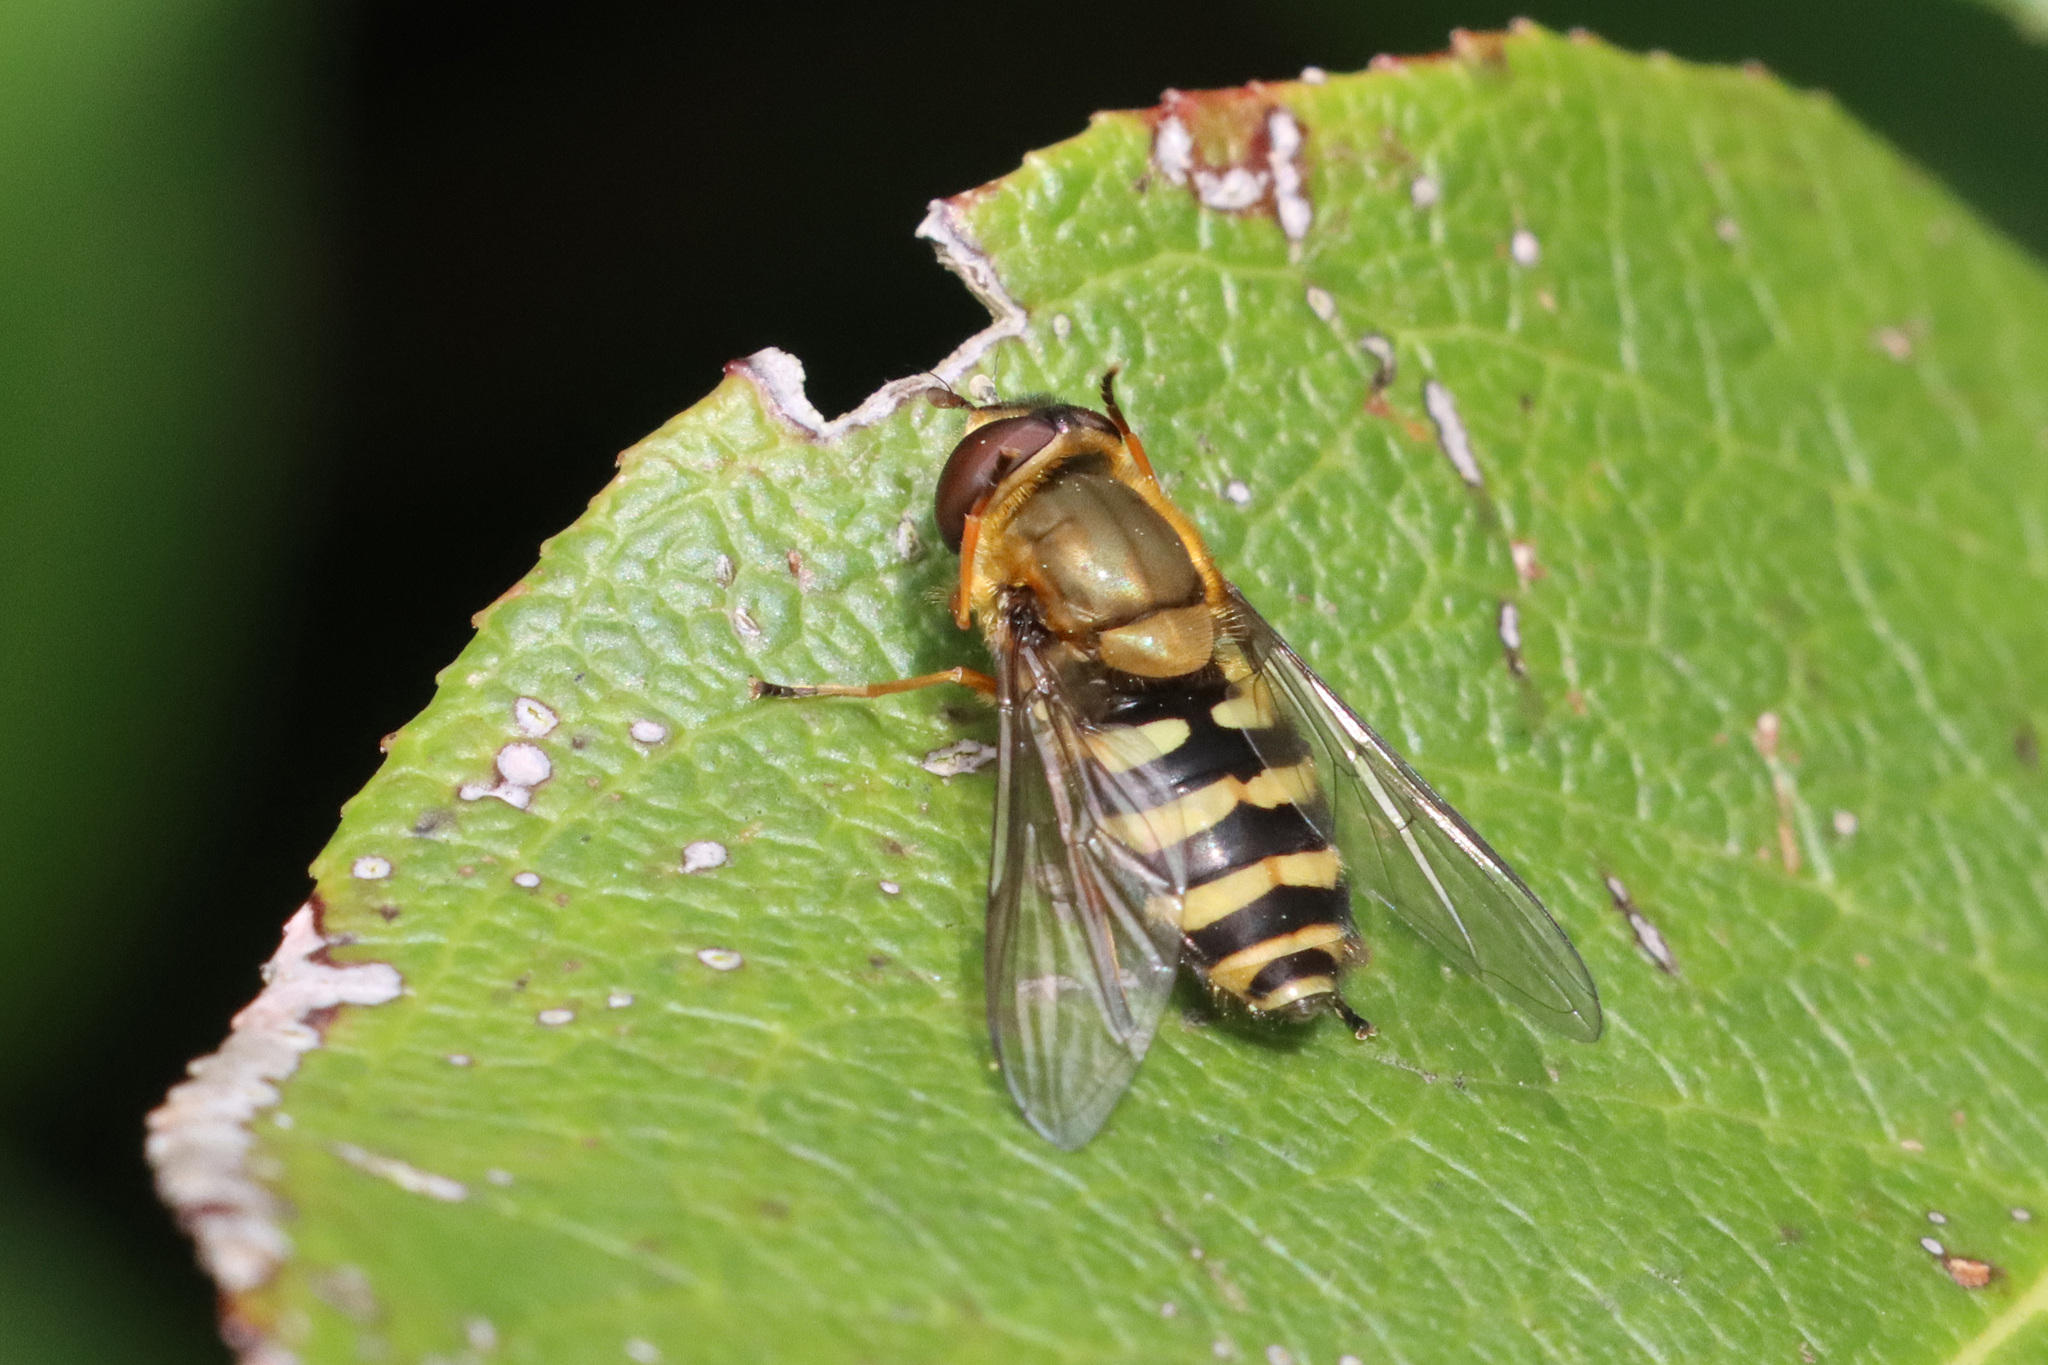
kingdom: Animalia
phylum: Arthropoda
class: Insecta
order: Diptera
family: Syrphidae
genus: Syrphus
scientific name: Syrphus torvus
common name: Hairy-eyed flower fly
